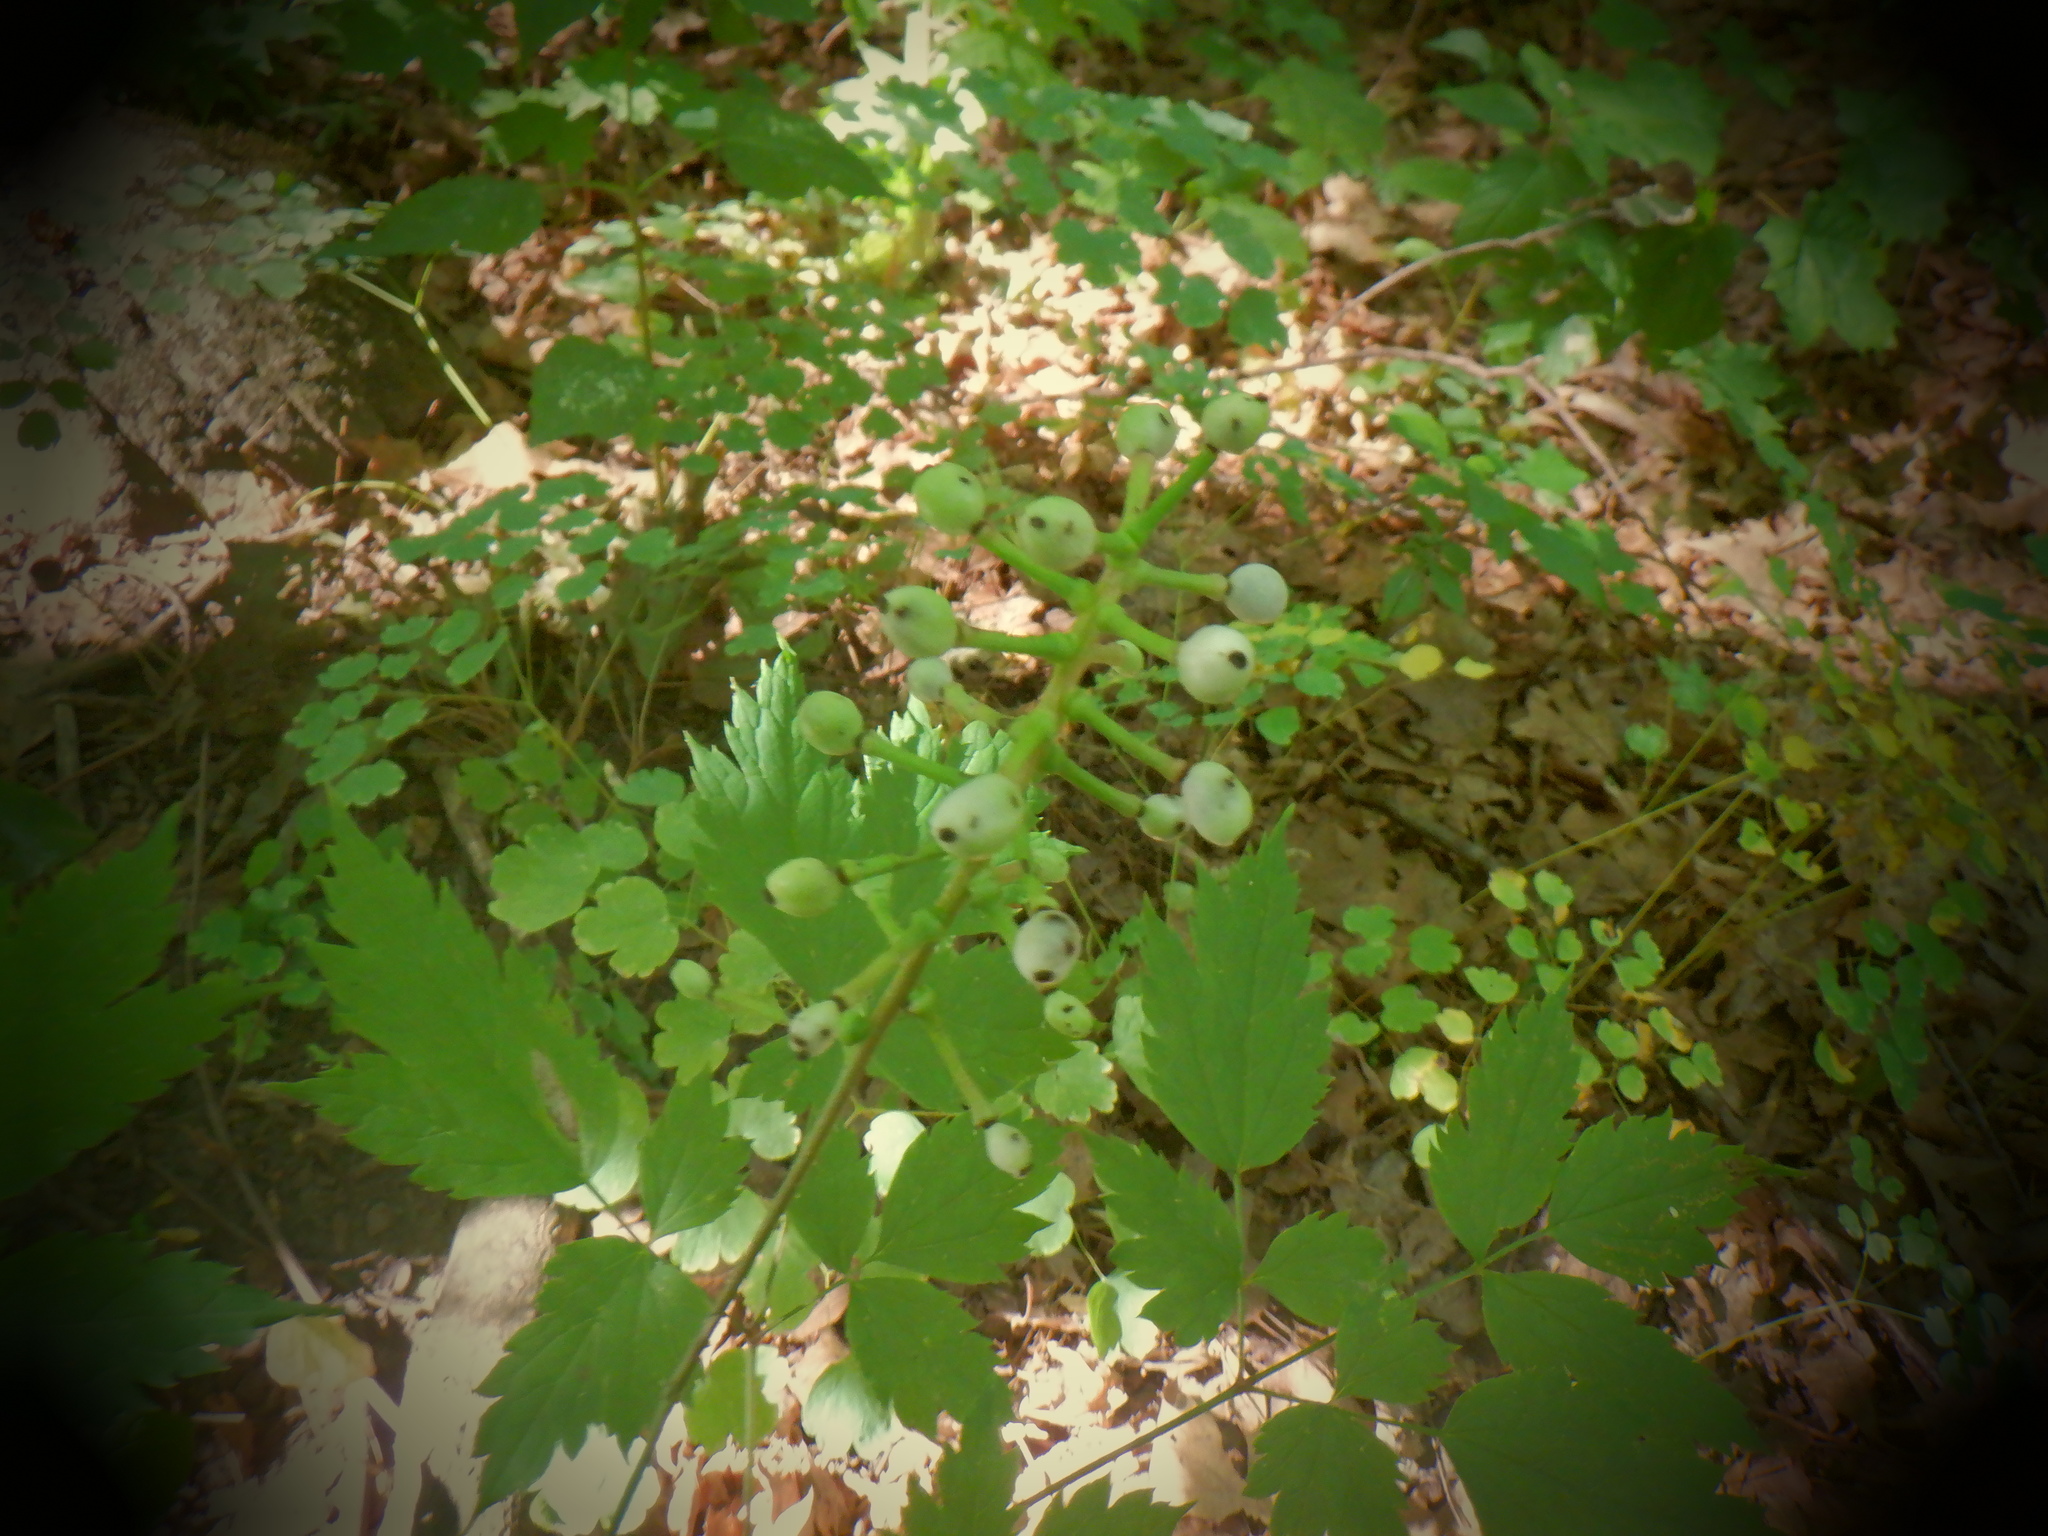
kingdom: Plantae
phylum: Tracheophyta
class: Magnoliopsida
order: Ranunculales
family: Ranunculaceae
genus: Actaea
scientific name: Actaea pachypoda
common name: Doll's-eyes
